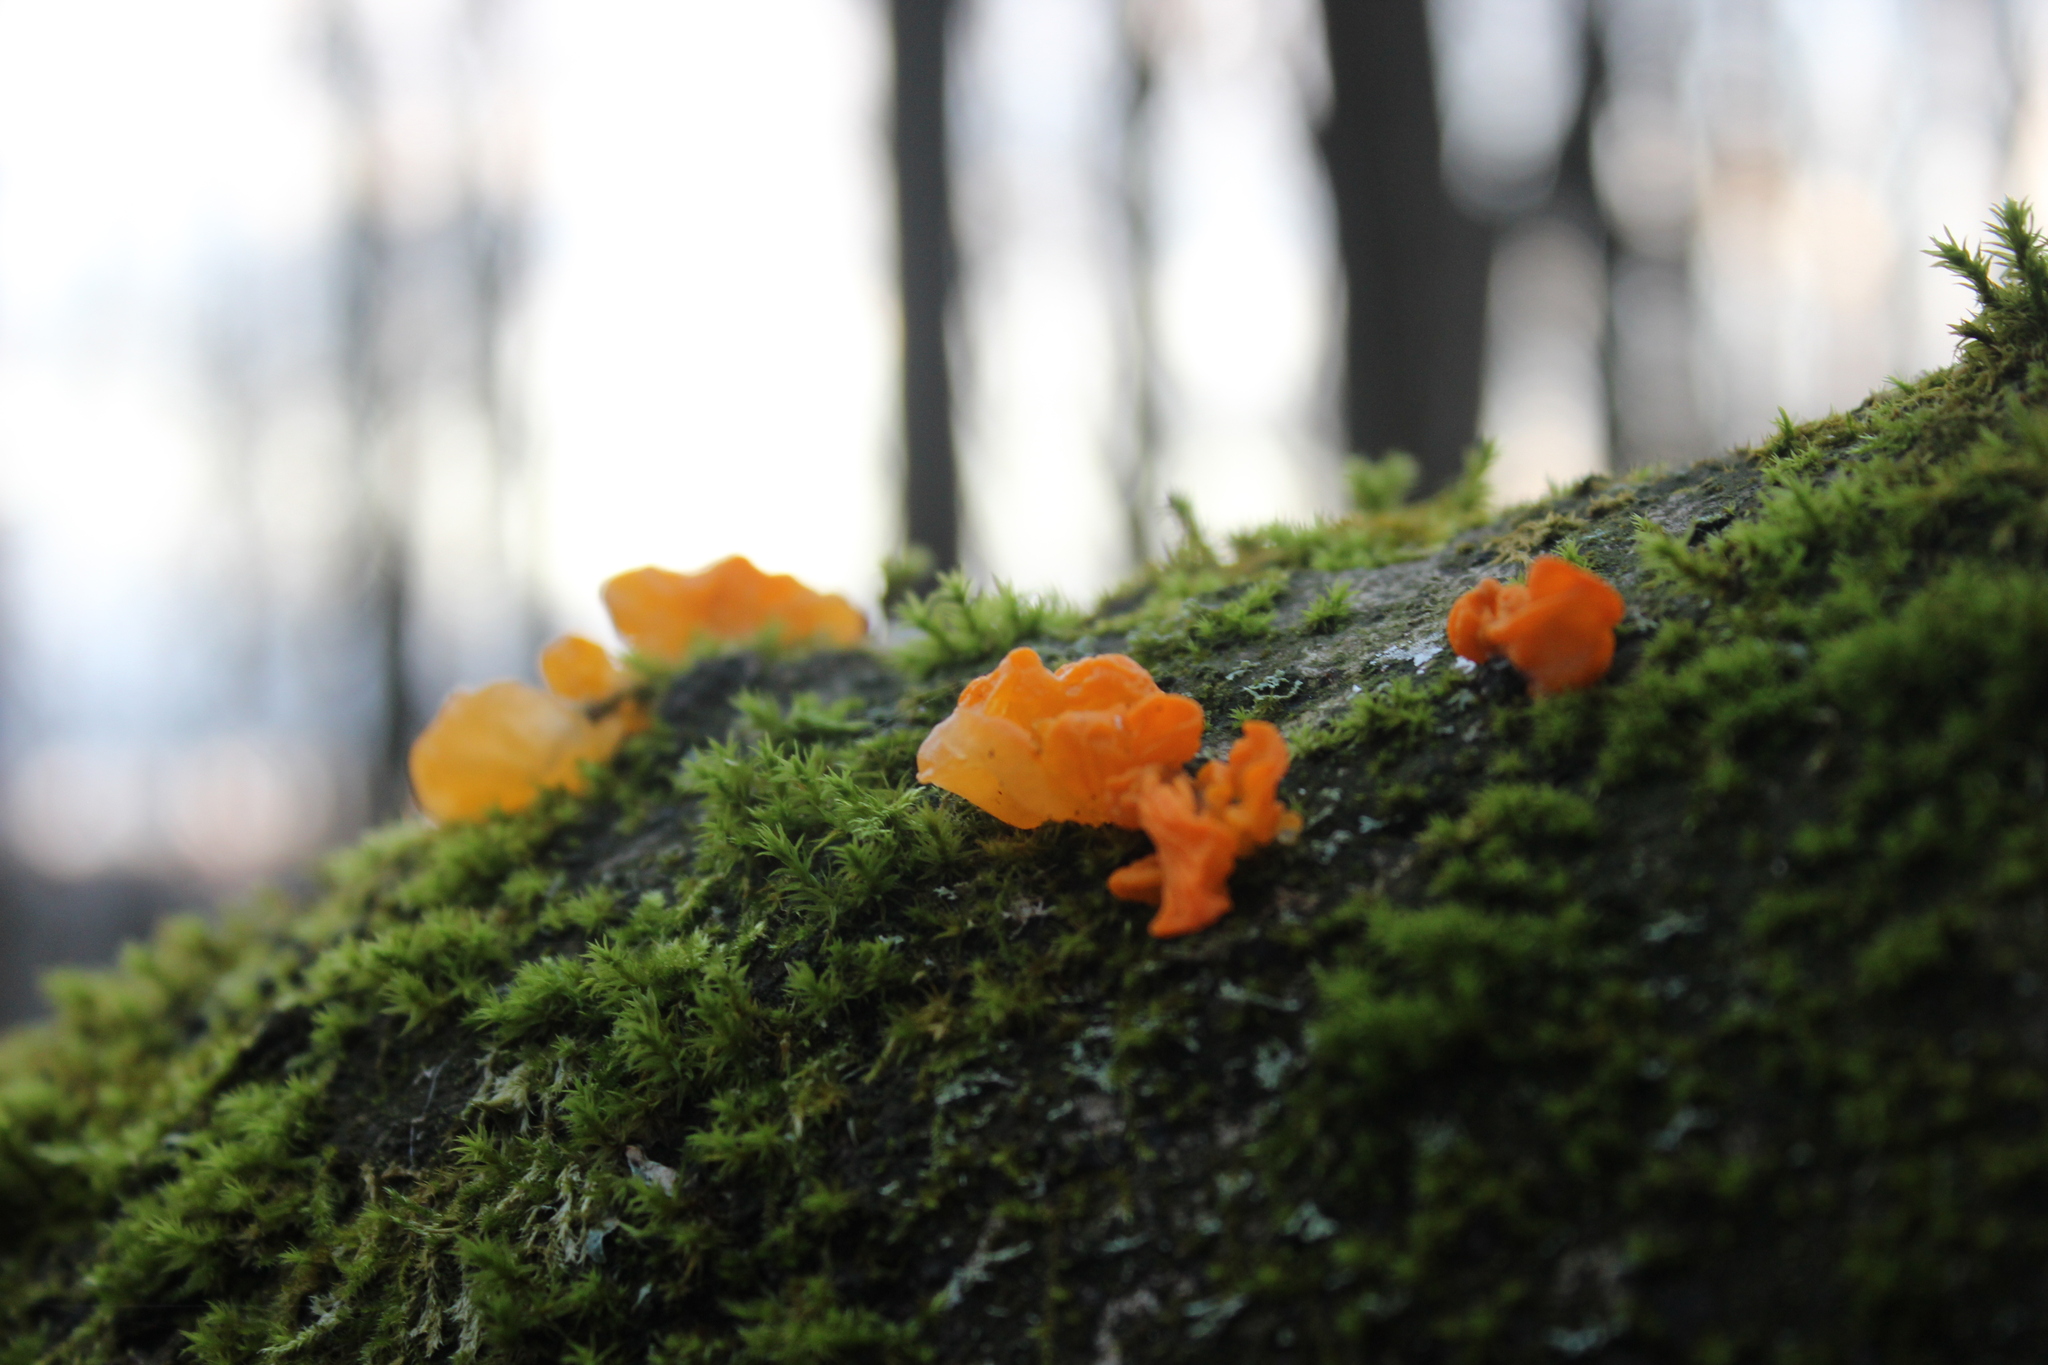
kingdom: Fungi
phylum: Basidiomycota
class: Tremellomycetes
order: Tremellales
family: Tremellaceae
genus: Tremella
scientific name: Tremella mesenterica
